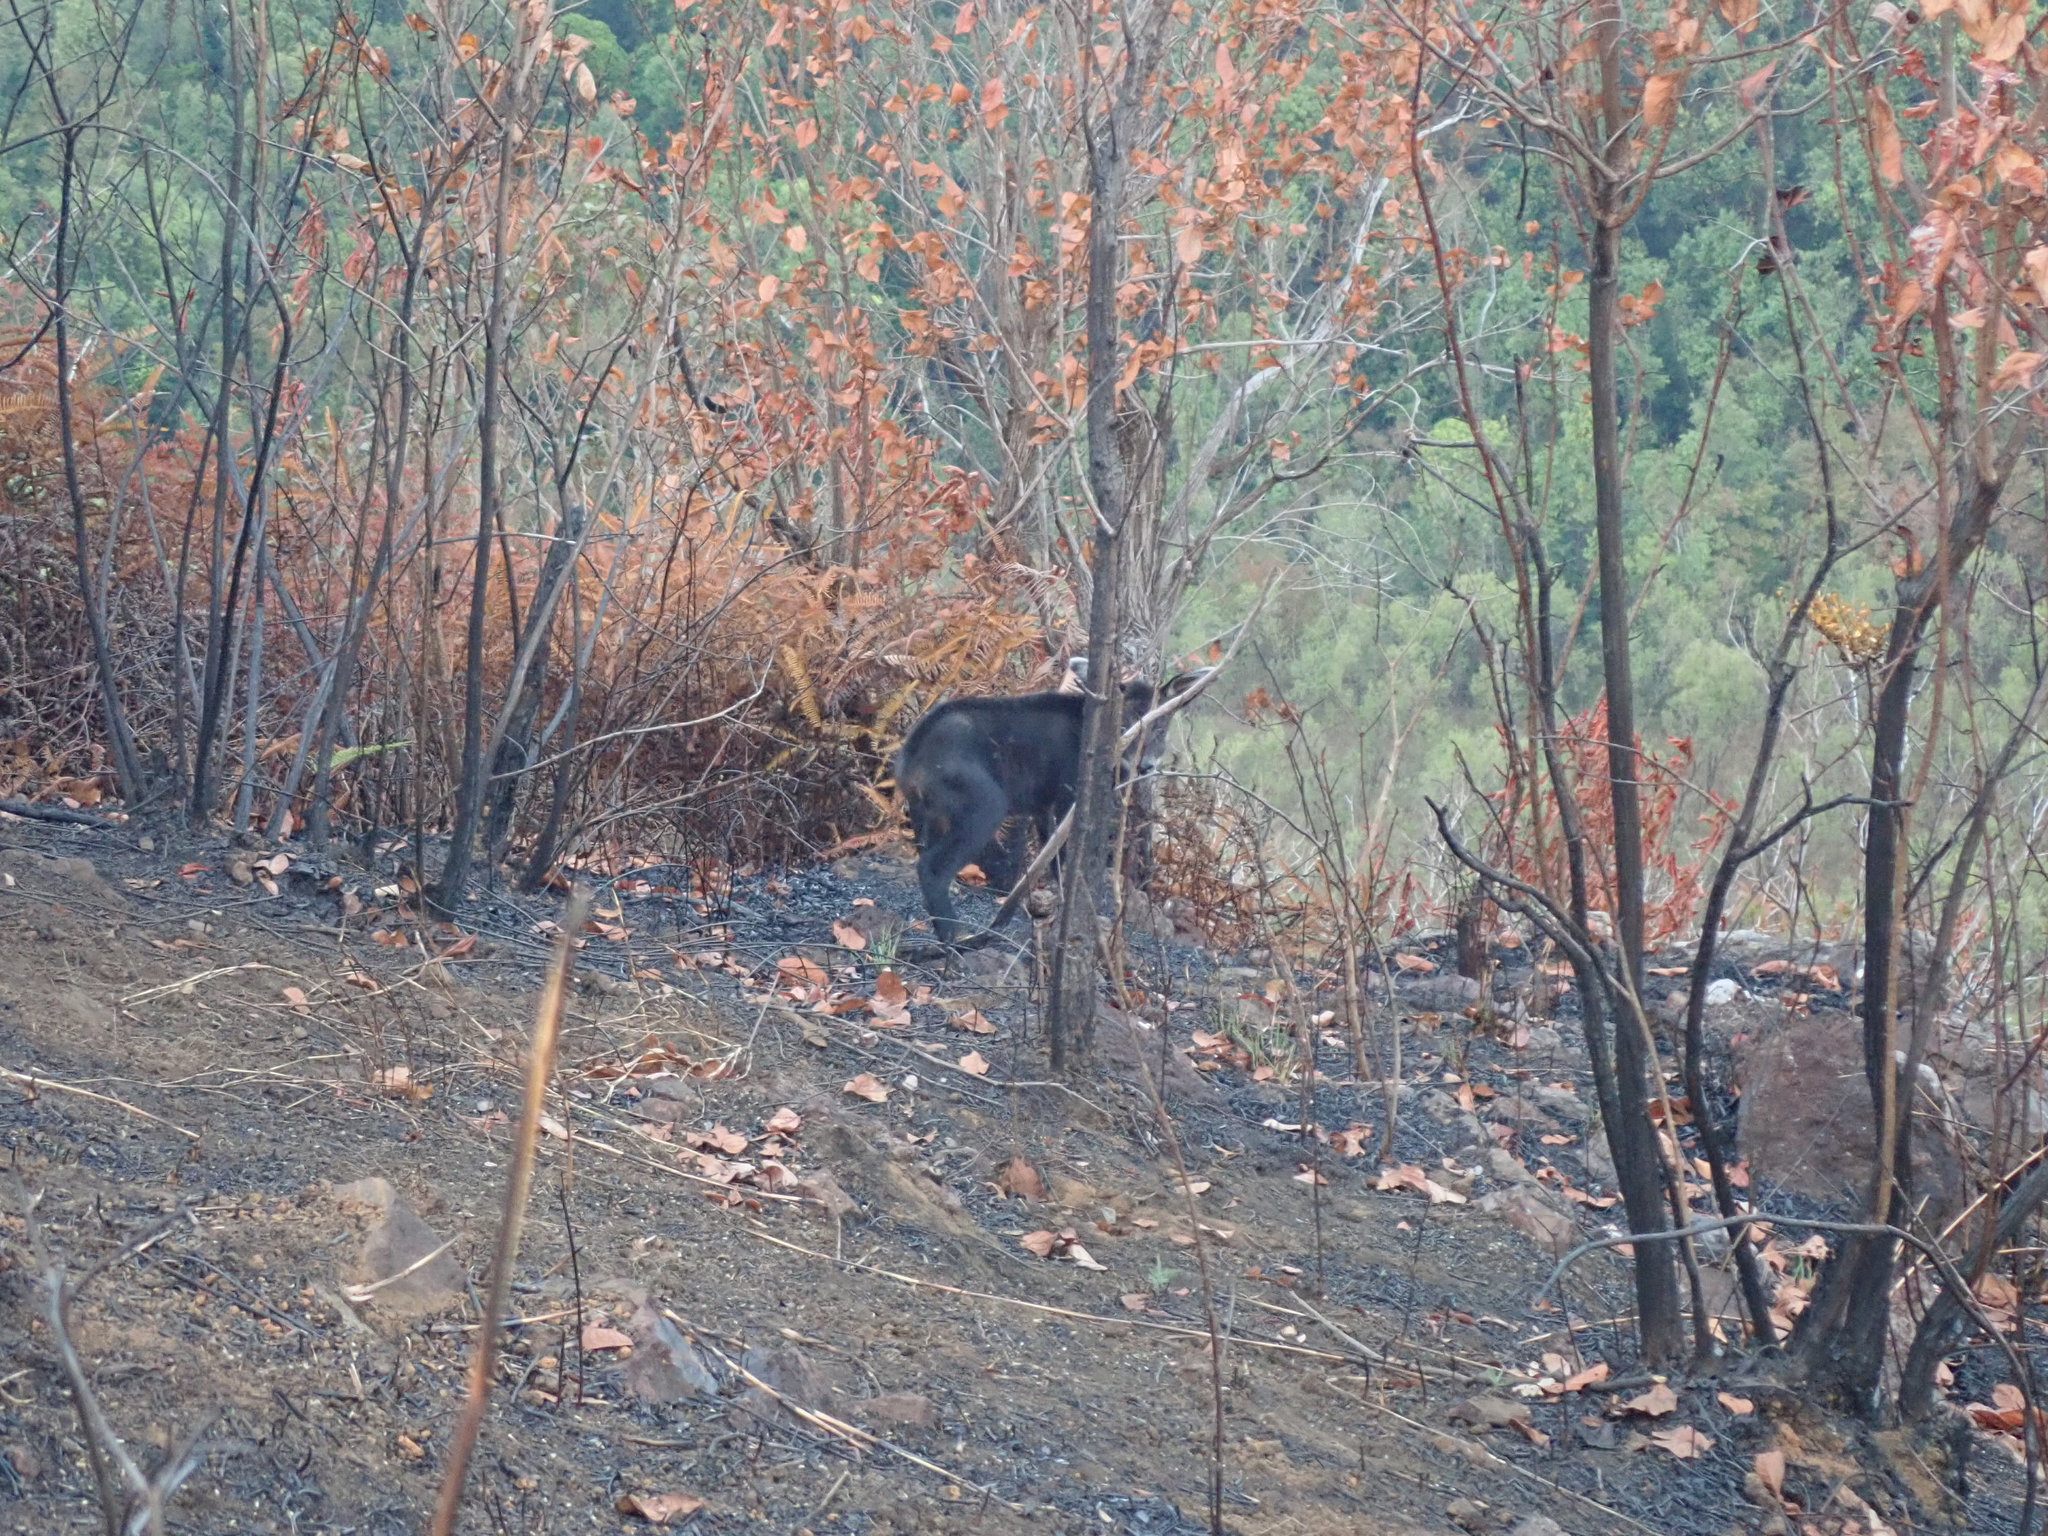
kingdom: Animalia
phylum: Chordata
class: Mammalia
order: Artiodactyla
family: Bovidae
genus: Capricornis
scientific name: Capricornis sumatraensis
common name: Sumatran serow
